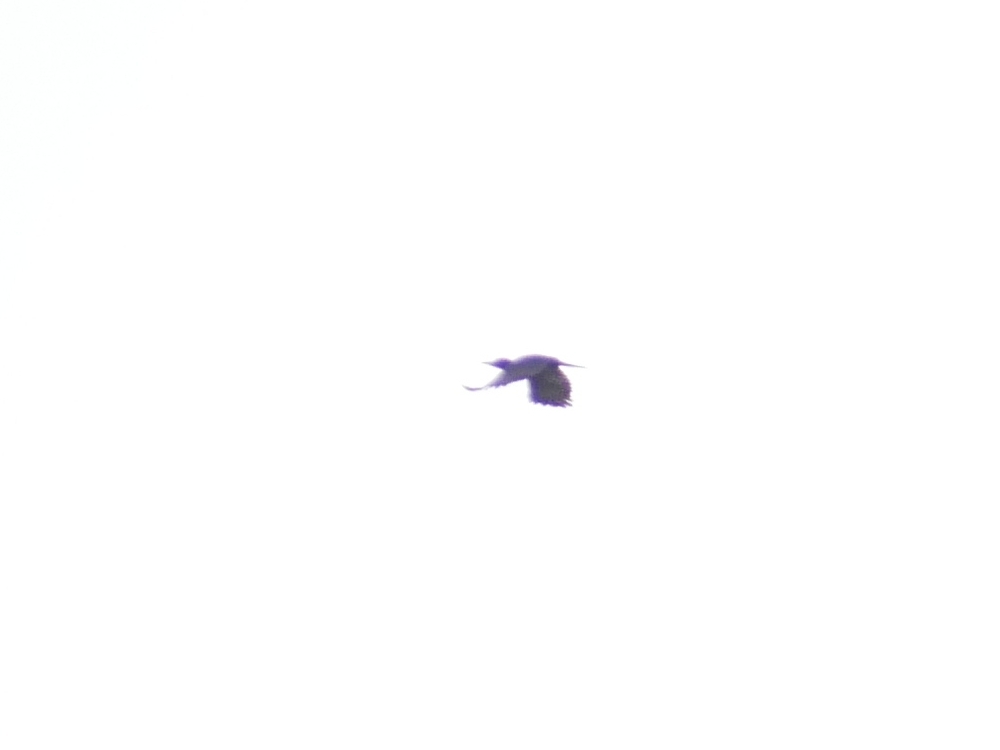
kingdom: Animalia
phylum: Chordata
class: Aves
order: Piciformes
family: Picidae
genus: Dryocopus
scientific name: Dryocopus martius
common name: Black woodpecker
